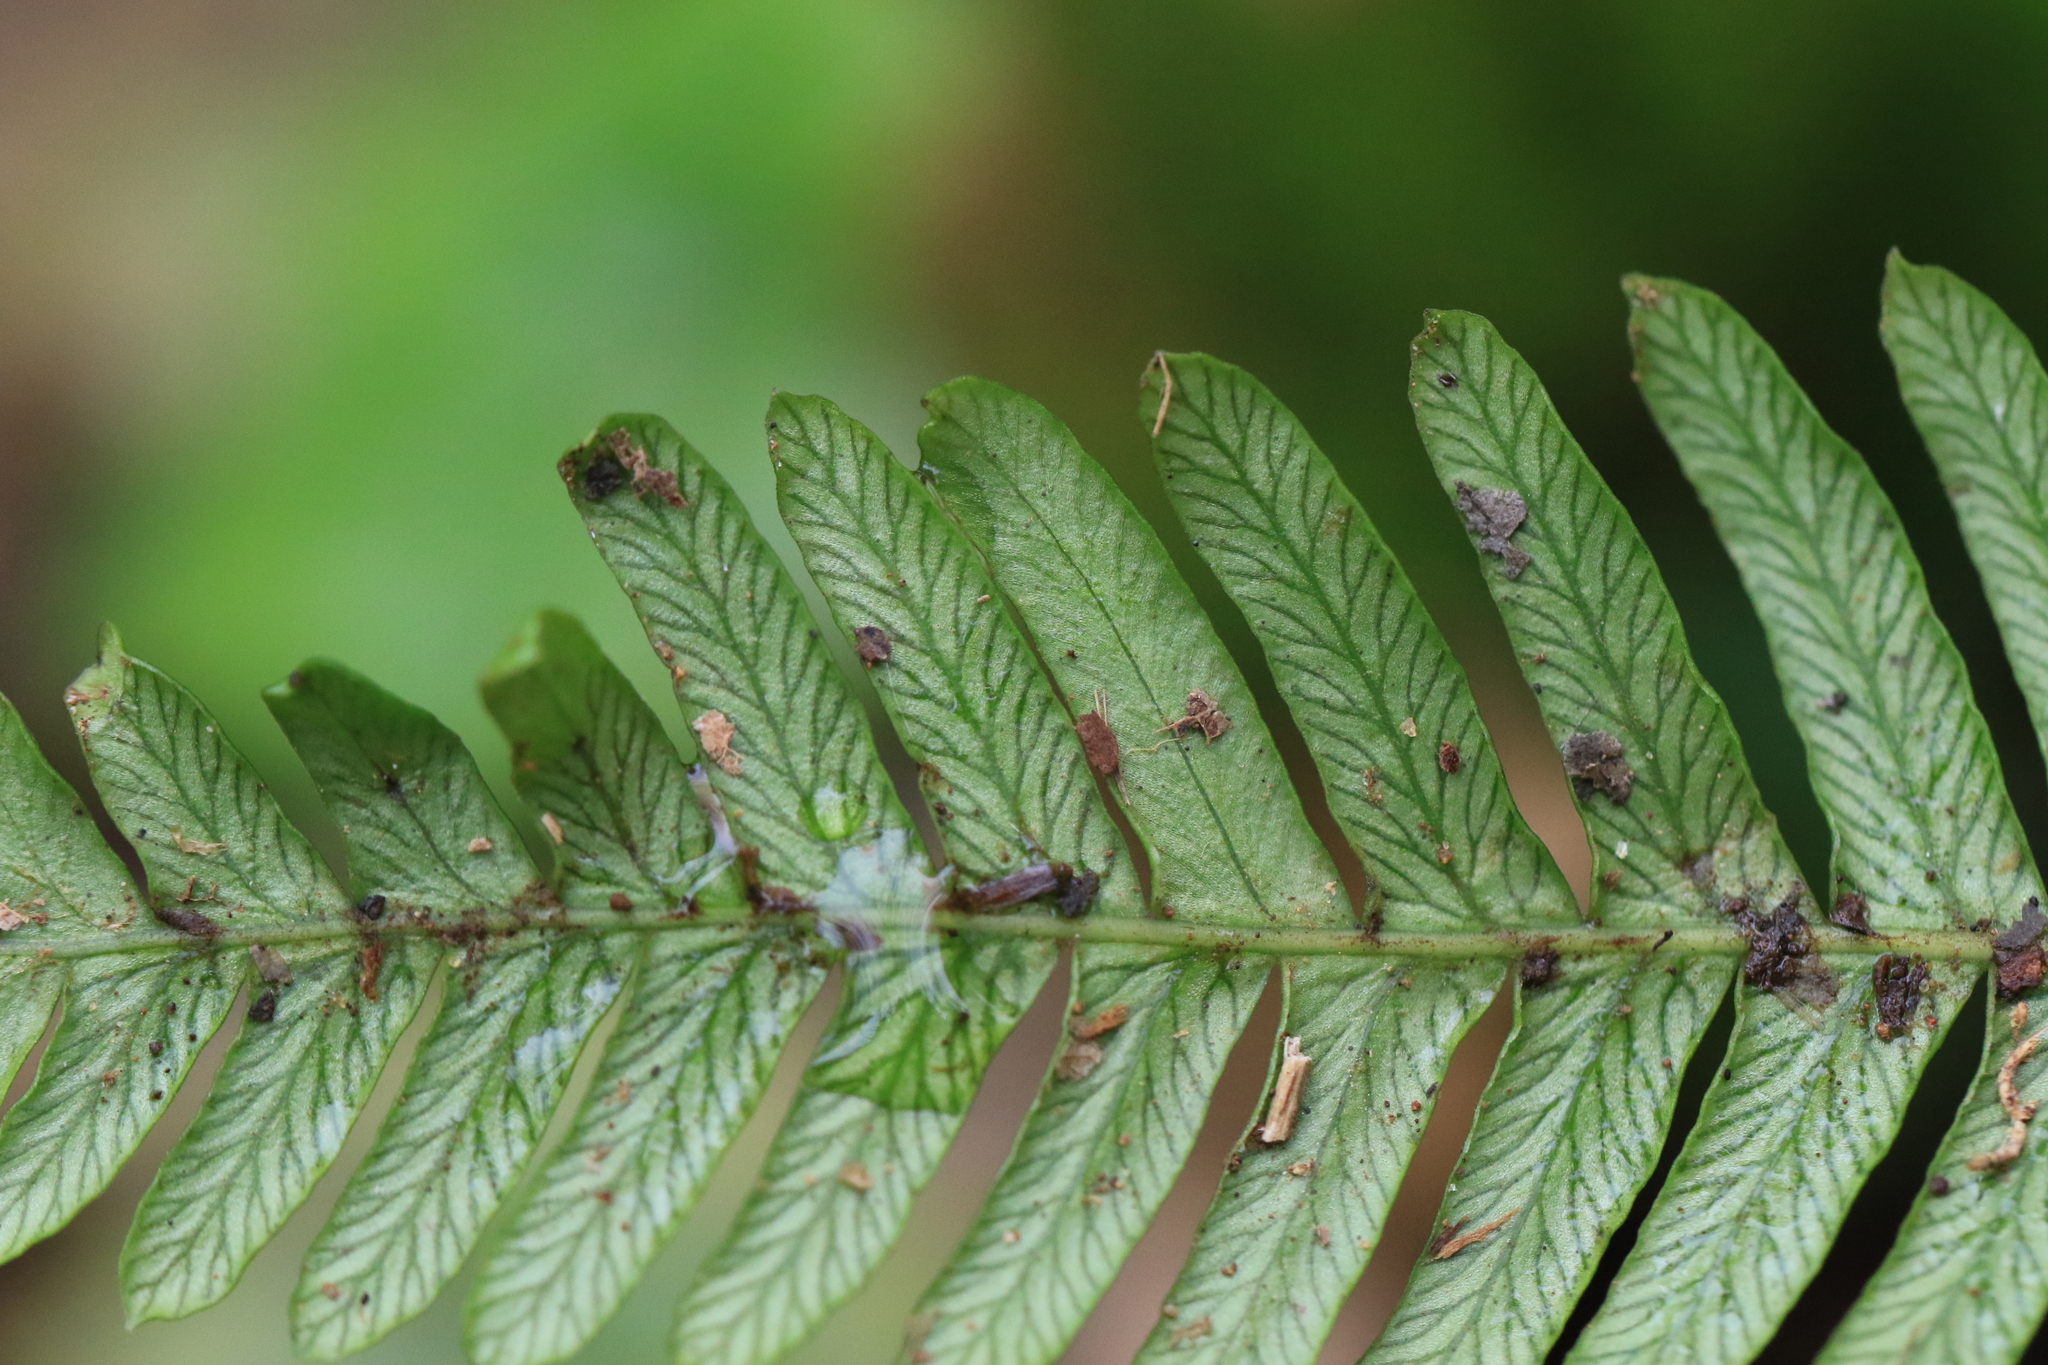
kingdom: Plantae
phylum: Tracheophyta
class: Polypodiopsida
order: Polypodiales
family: Blechnaceae
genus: Struthiopteris
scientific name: Struthiopteris spicant
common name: Deer fern
